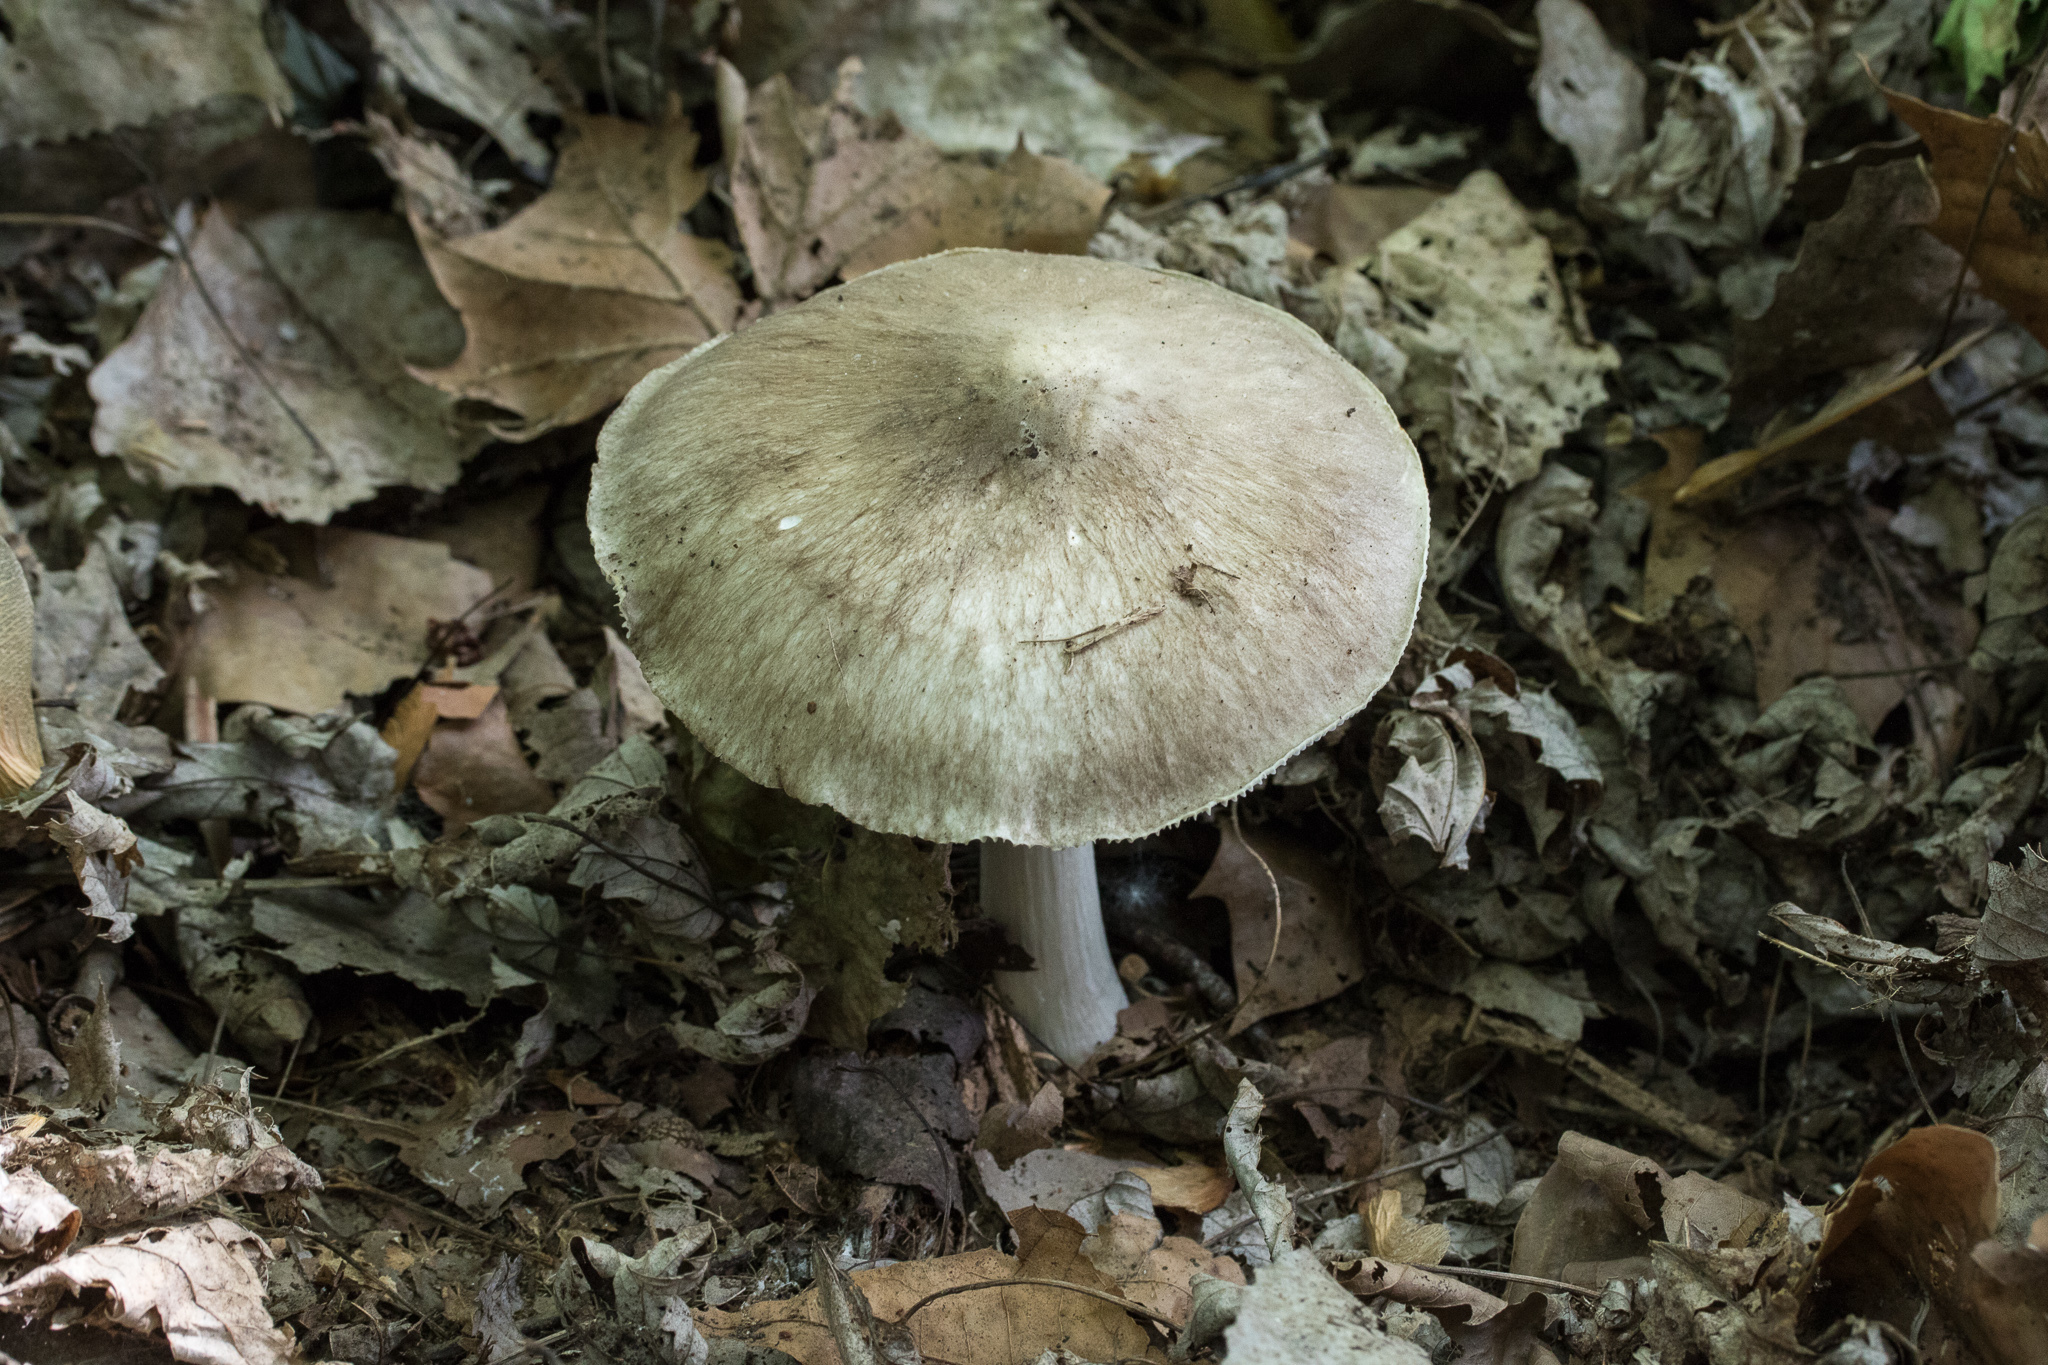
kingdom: Fungi
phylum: Basidiomycota
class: Agaricomycetes
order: Agaricales
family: Tricholomataceae
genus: Megacollybia
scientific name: Megacollybia rodmanii
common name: Eastern american platterful mushroom
